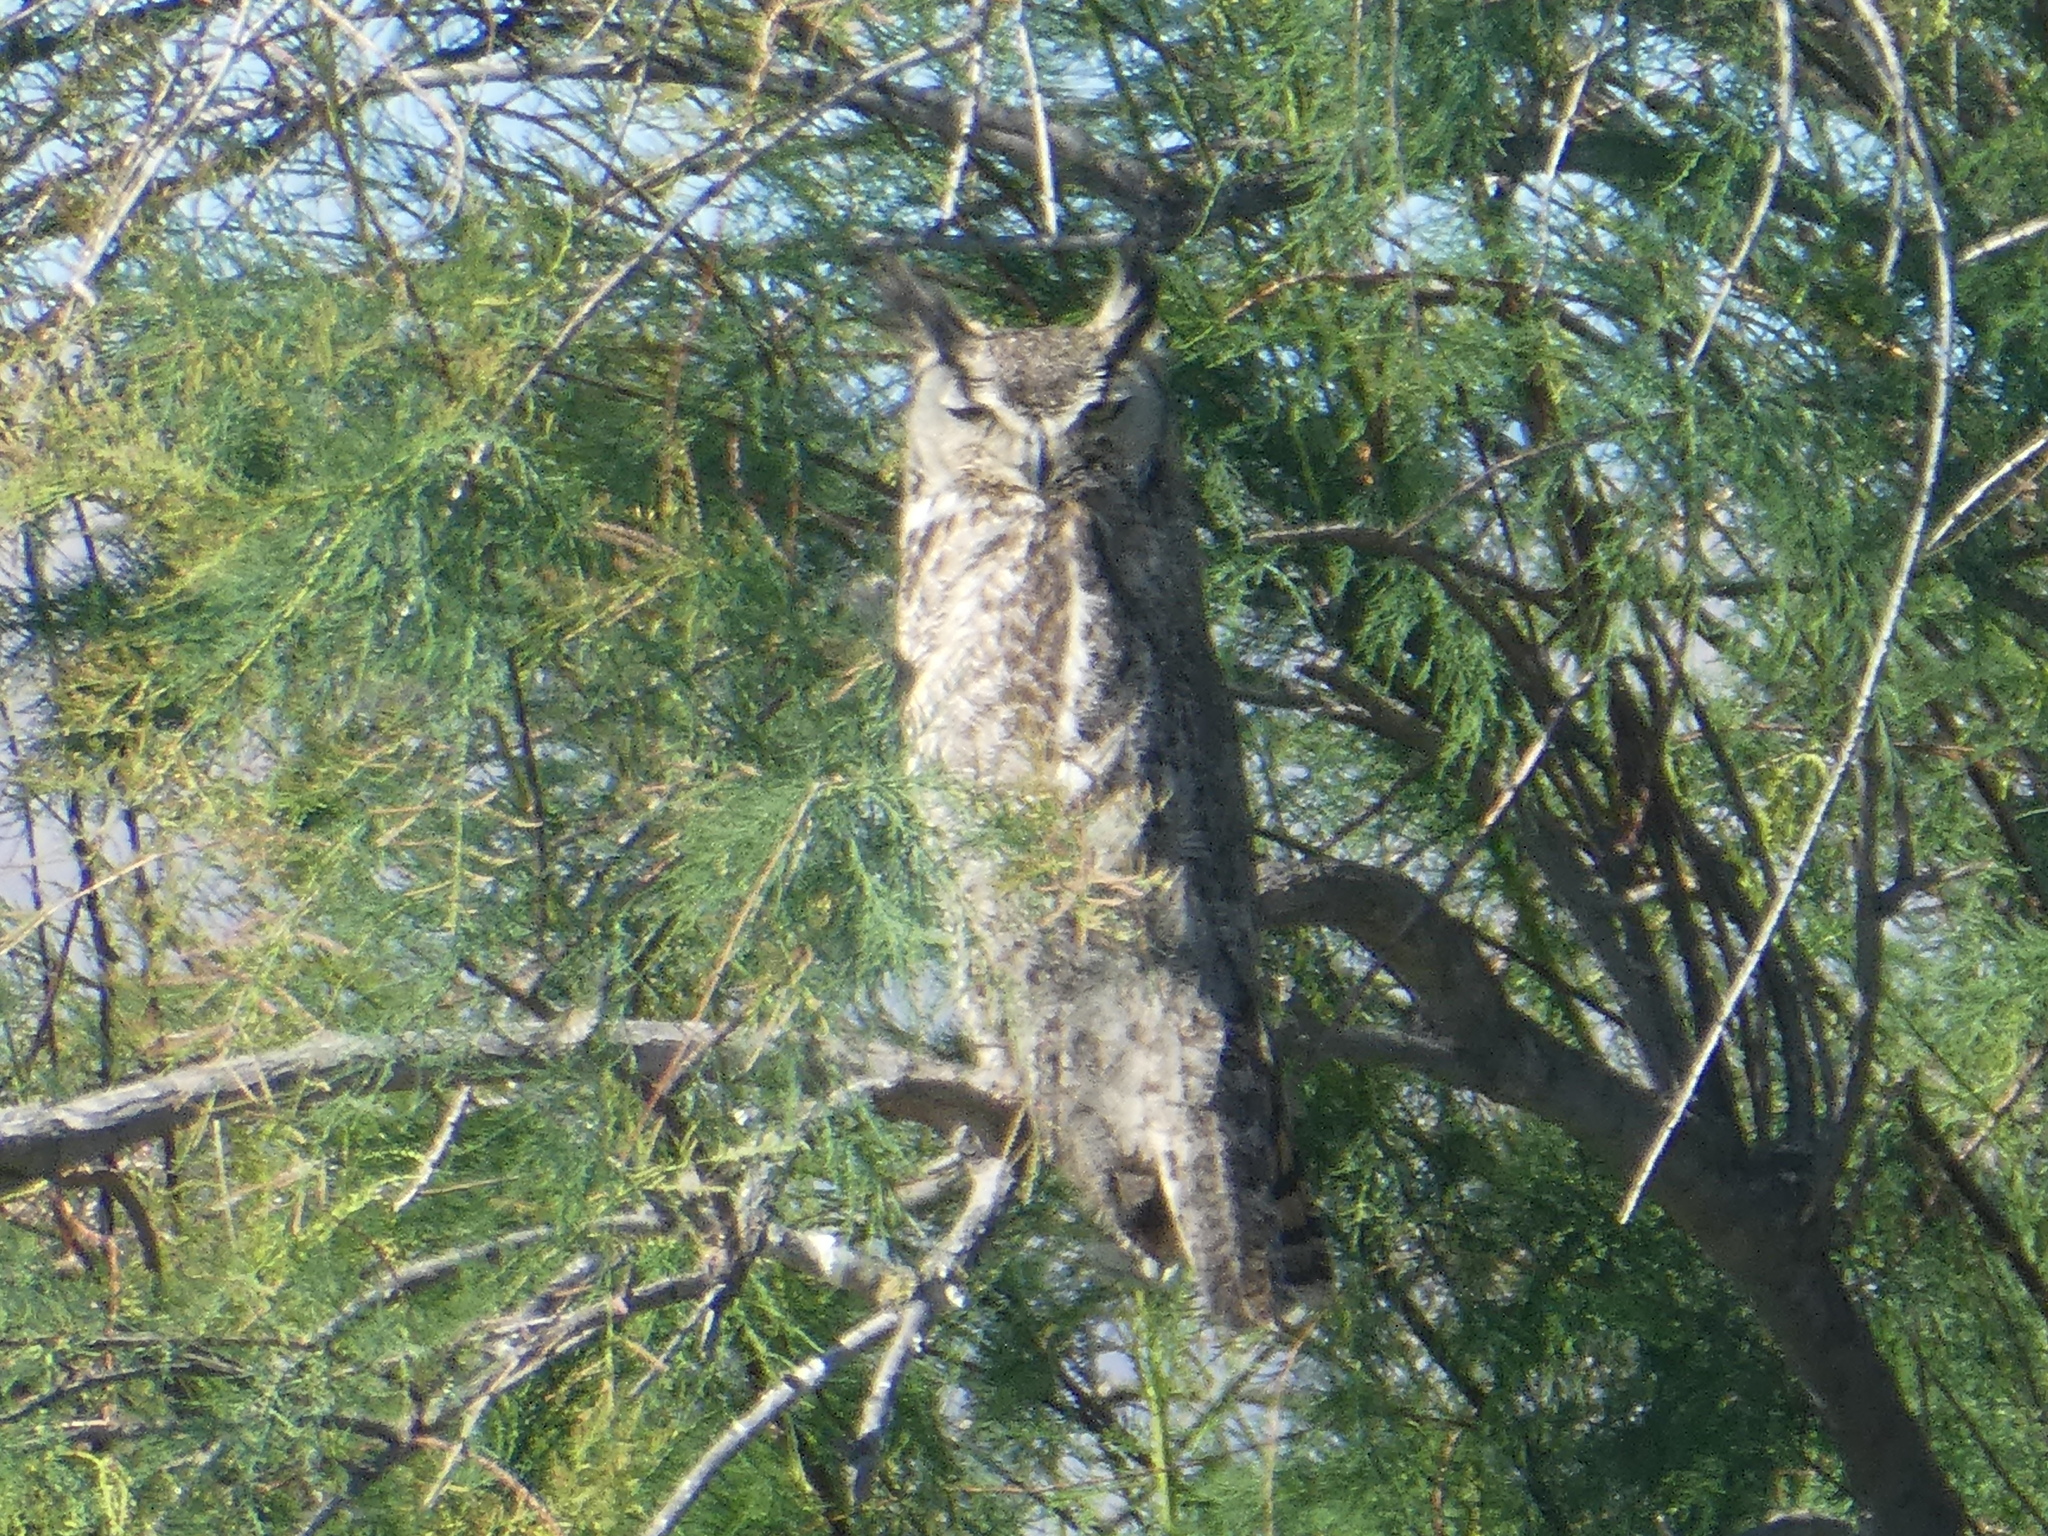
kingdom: Animalia
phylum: Chordata
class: Aves
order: Strigiformes
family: Strigidae
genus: Bubo
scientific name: Bubo virginianus
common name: Great horned owl
